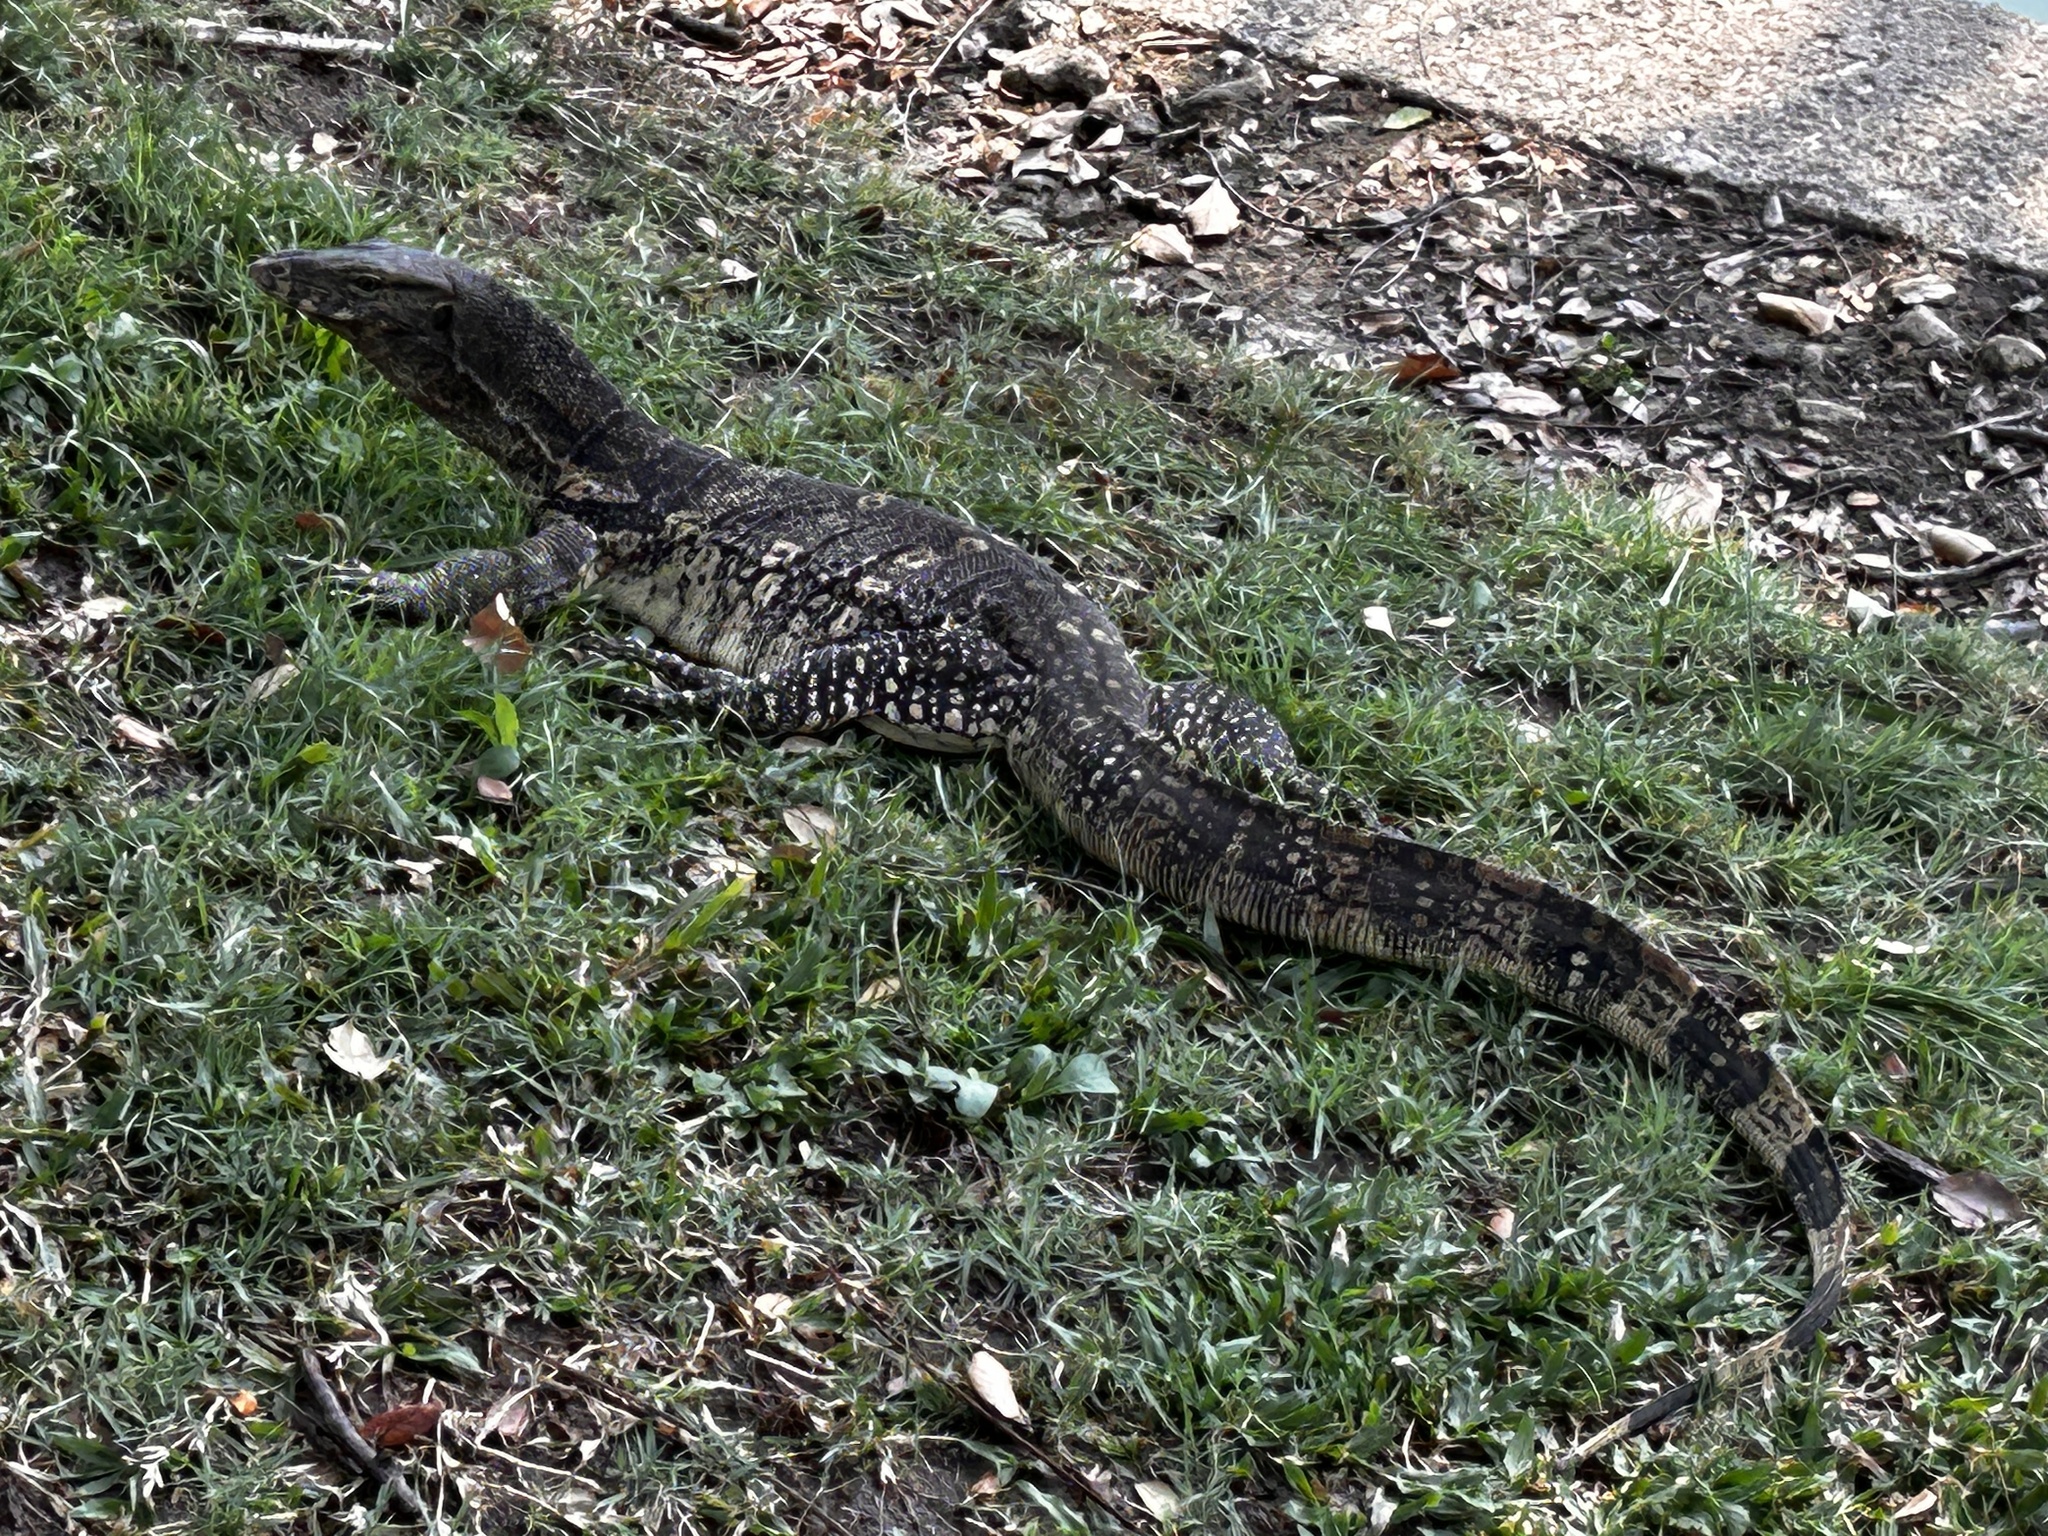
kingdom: Animalia
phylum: Chordata
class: Squamata
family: Varanidae
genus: Varanus
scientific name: Varanus salvator
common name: Common water monitor
